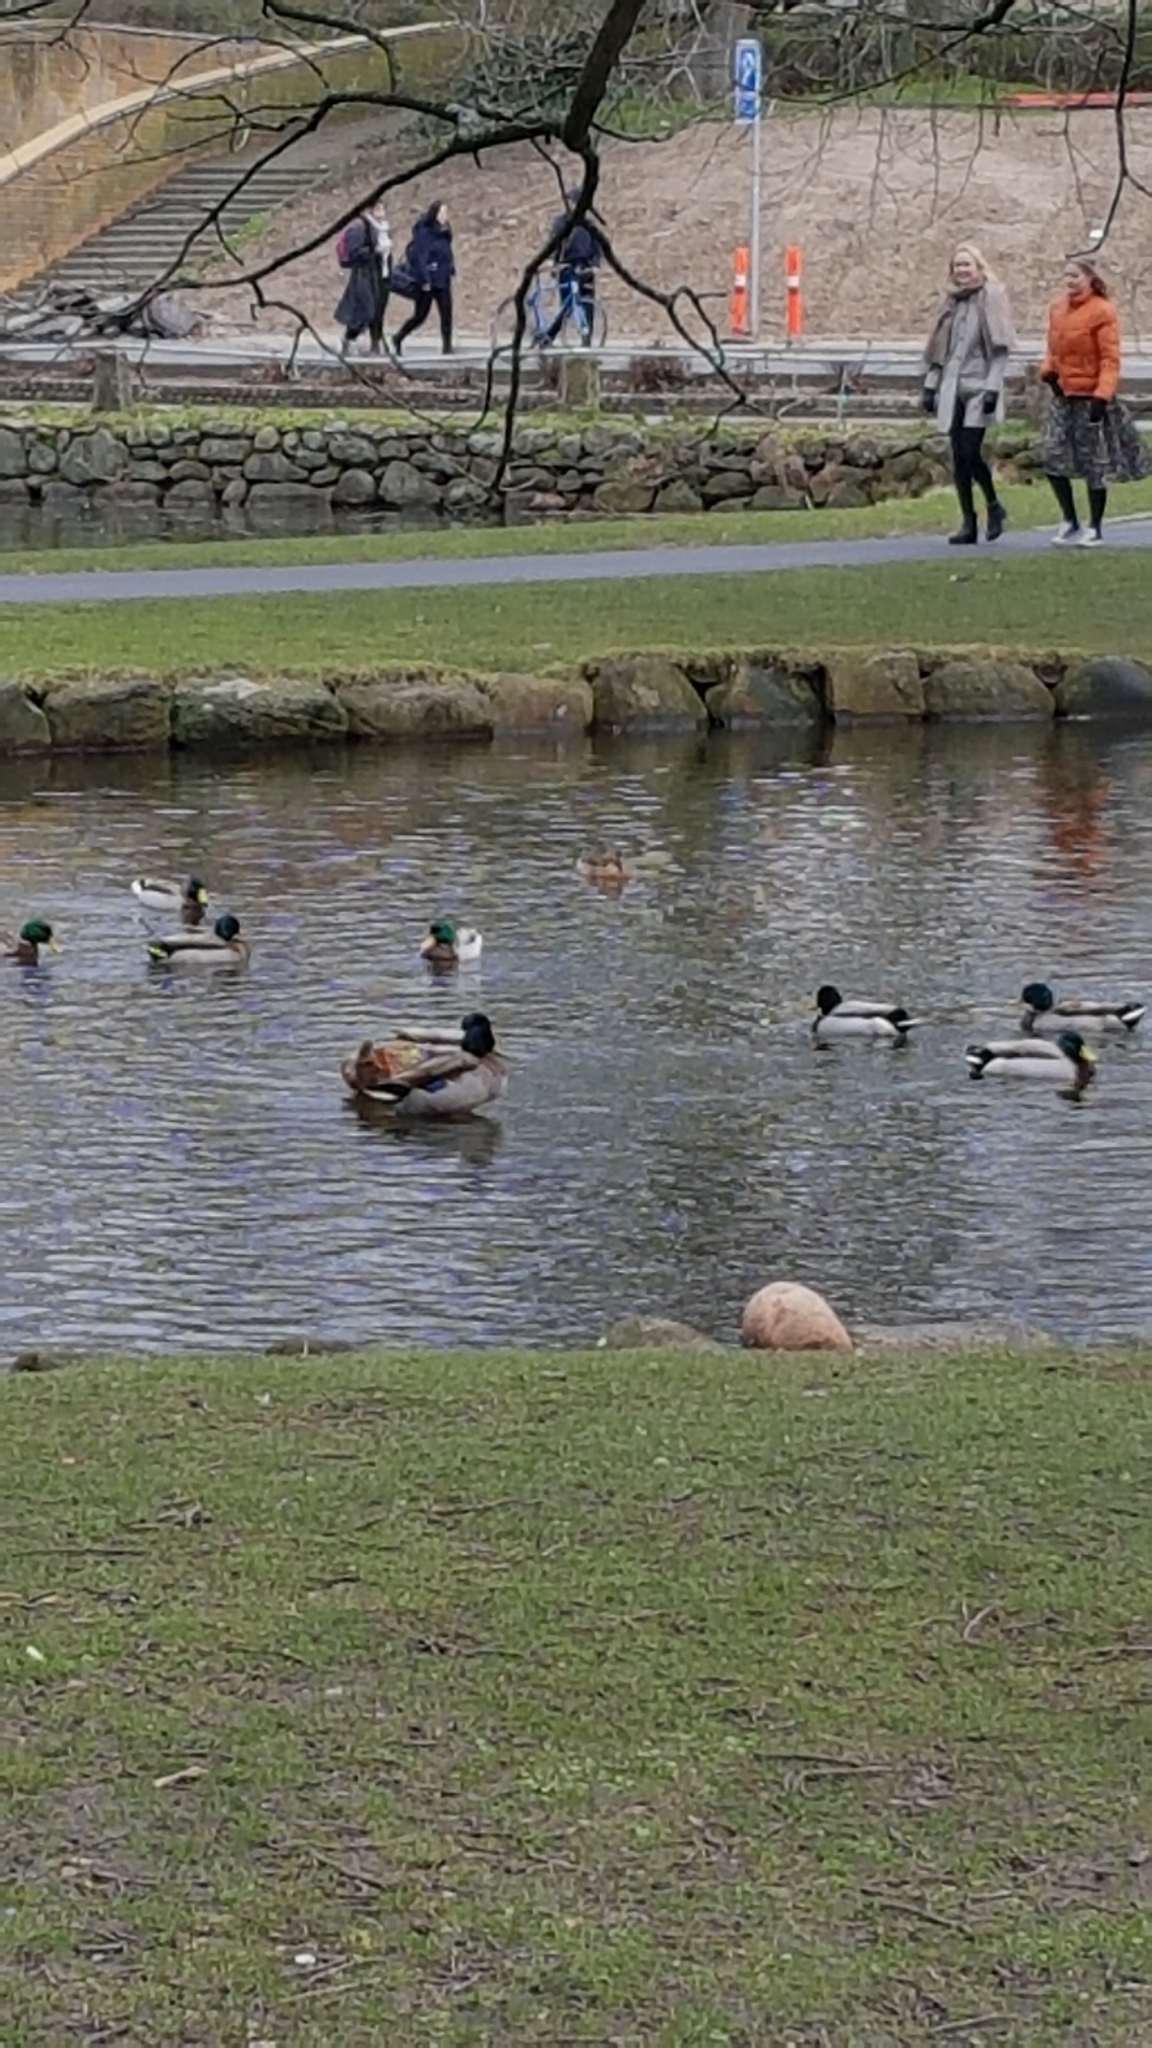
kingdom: Animalia
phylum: Chordata
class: Aves
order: Anseriformes
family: Anatidae
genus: Anas
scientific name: Anas platyrhynchos
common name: Mallard
